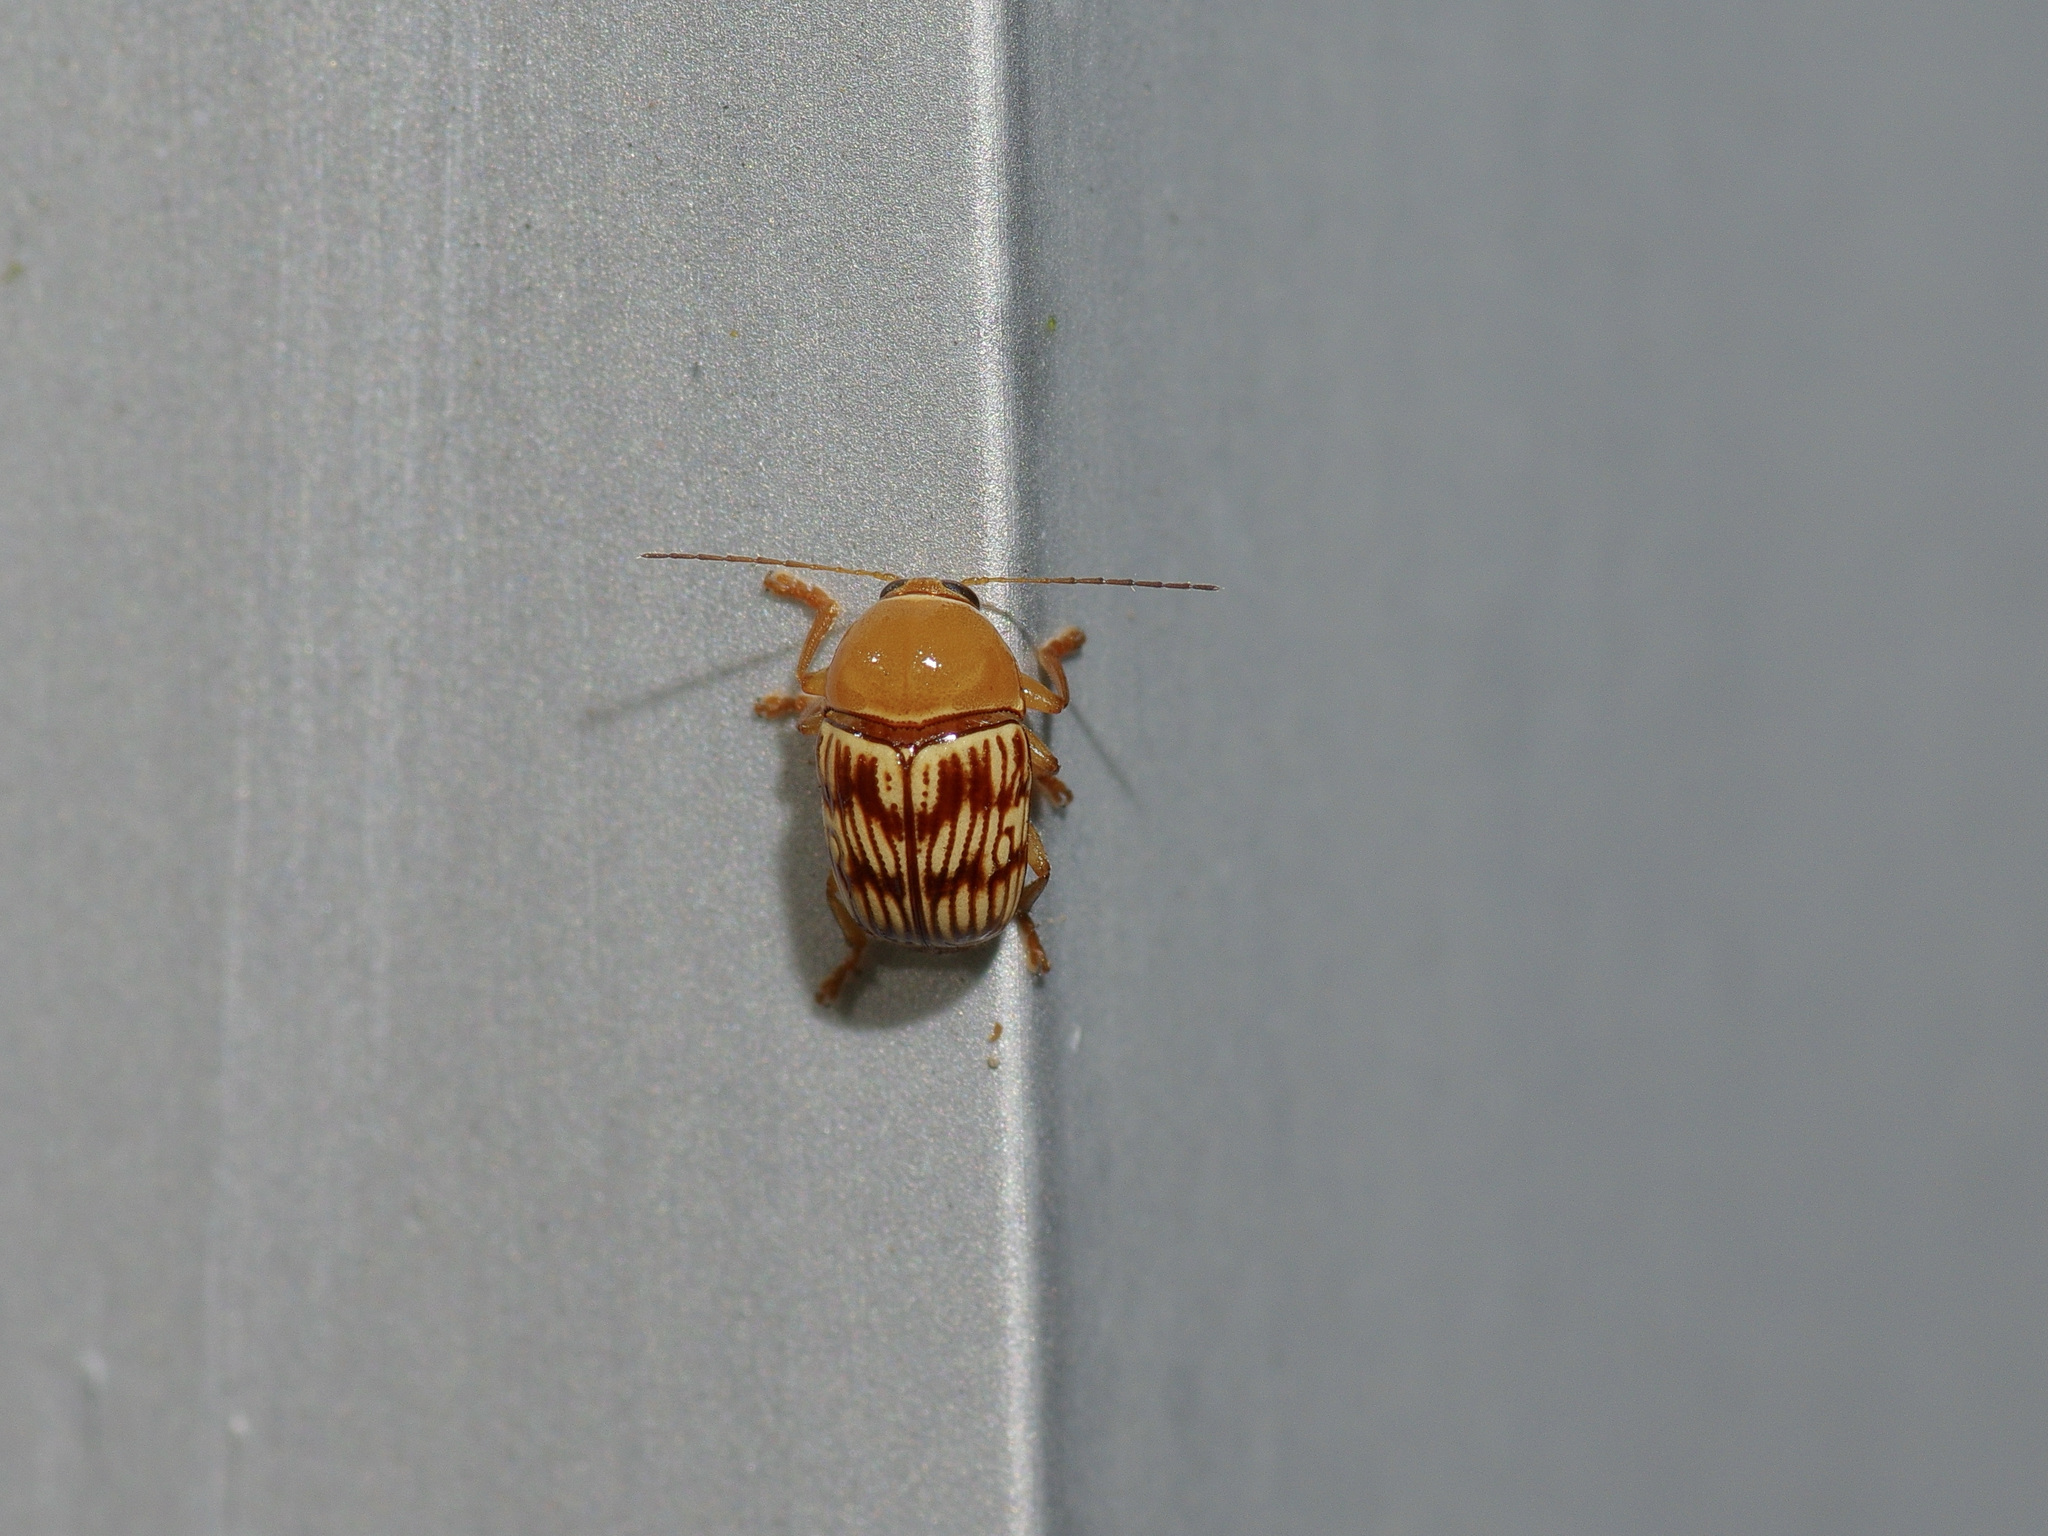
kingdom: Animalia
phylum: Arthropoda
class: Insecta
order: Coleoptera
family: Chrysomelidae
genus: Cryptocephalus
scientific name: Cryptocephalus fulguratus
